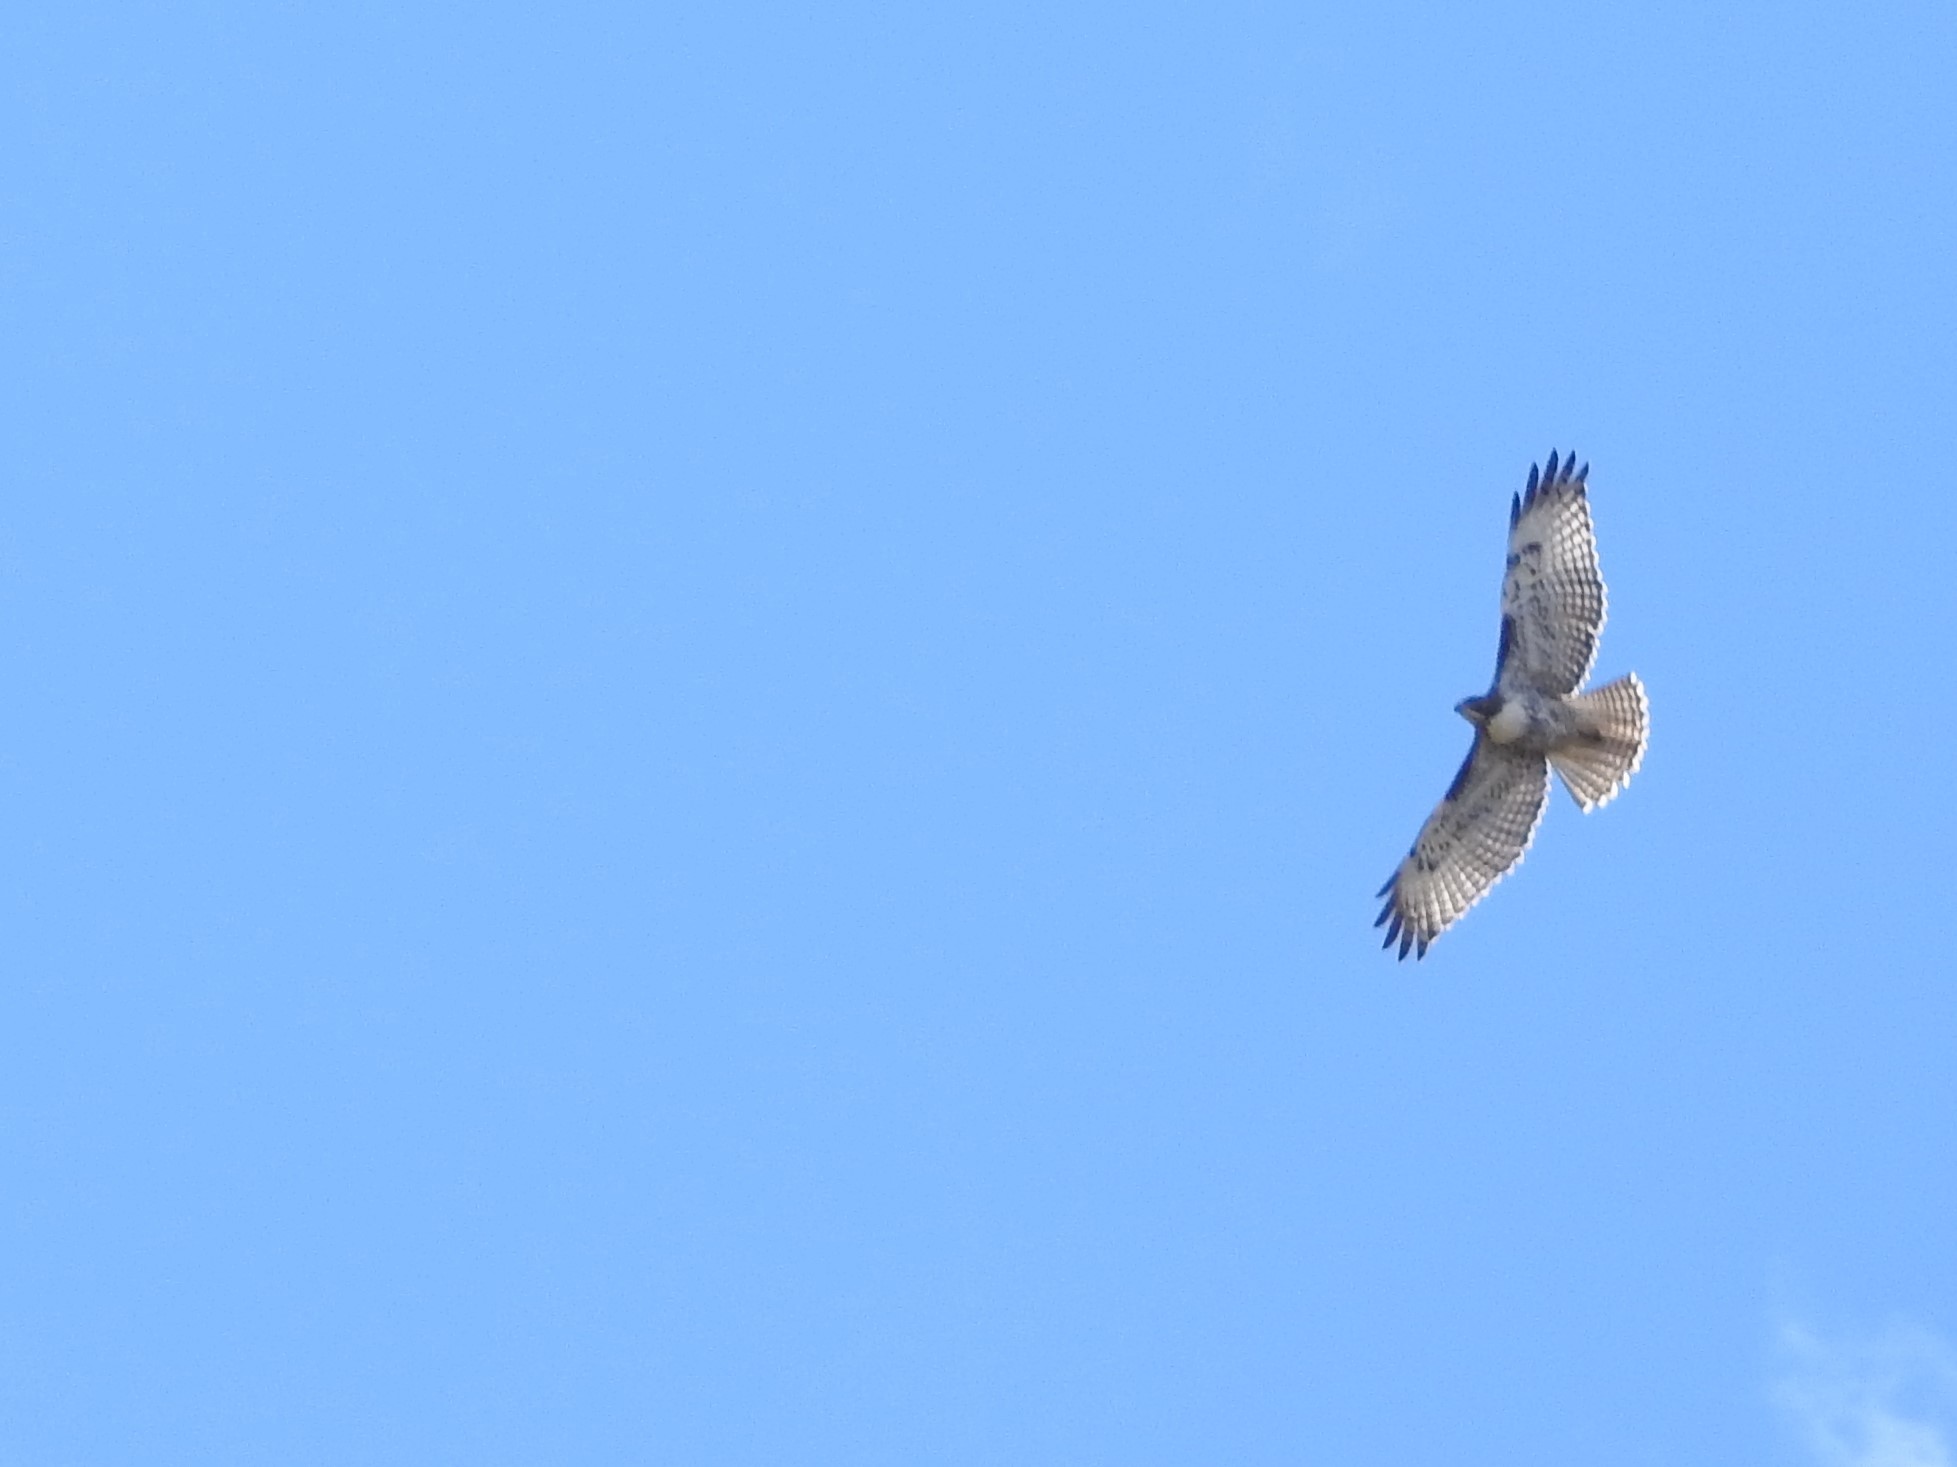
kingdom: Animalia
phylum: Chordata
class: Aves
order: Accipitriformes
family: Accipitridae
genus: Buteo
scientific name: Buteo jamaicensis
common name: Red-tailed hawk
